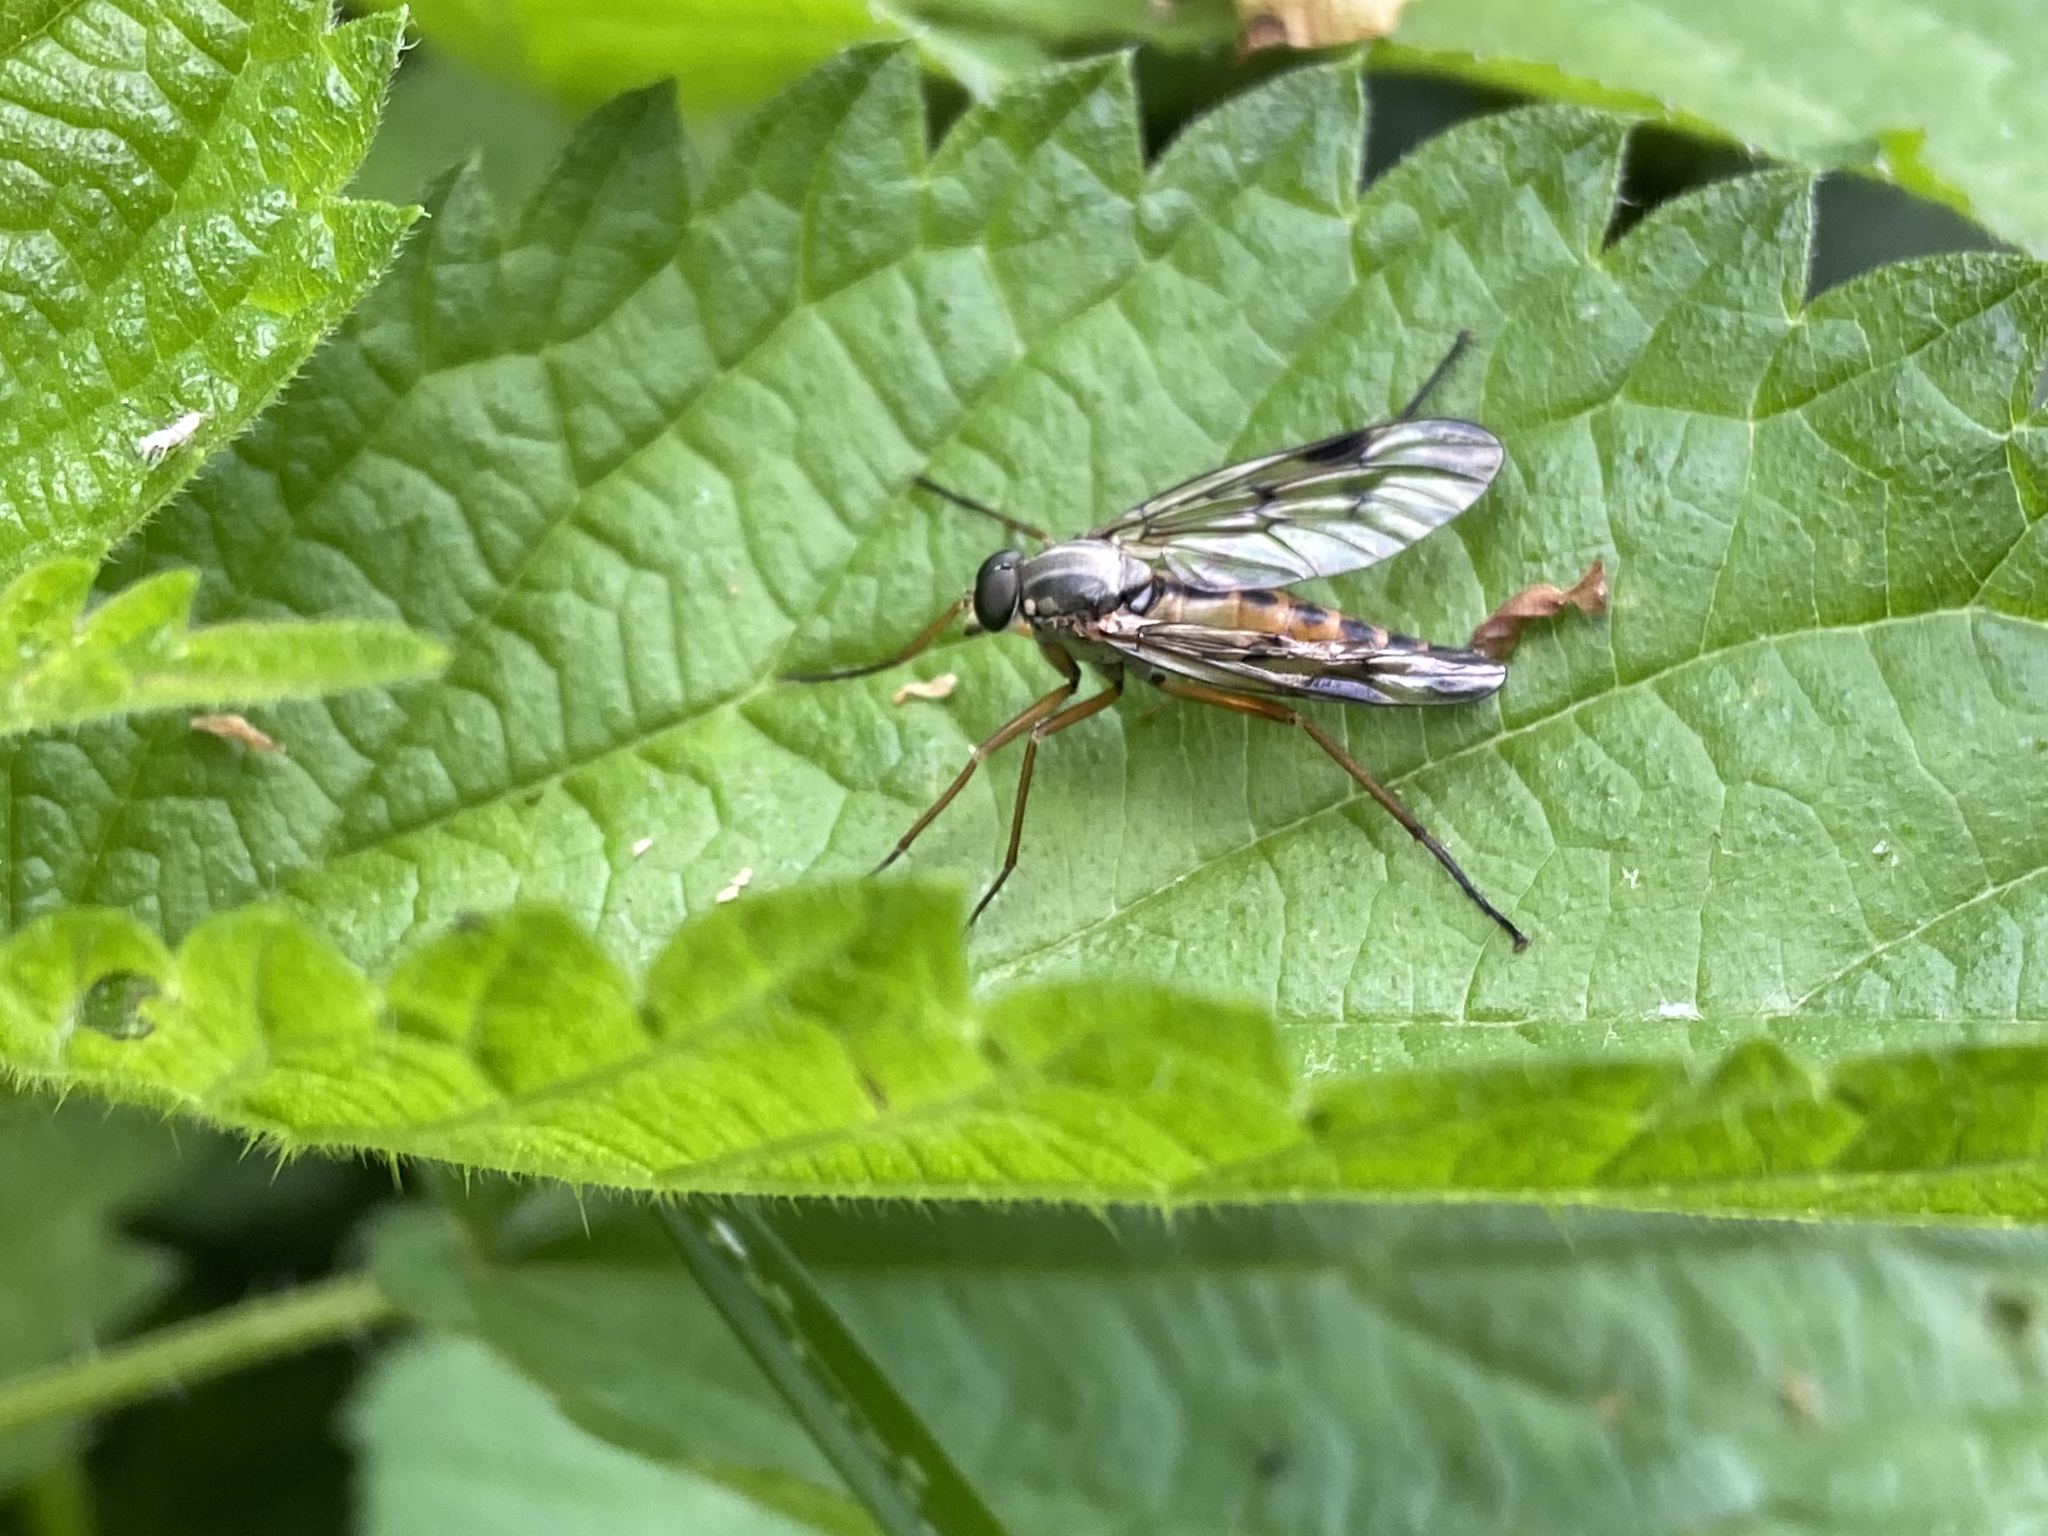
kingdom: Animalia
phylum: Arthropoda
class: Insecta
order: Diptera
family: Rhagionidae
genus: Rhagio
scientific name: Rhagio scolopacea
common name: Downlooker snipefly
